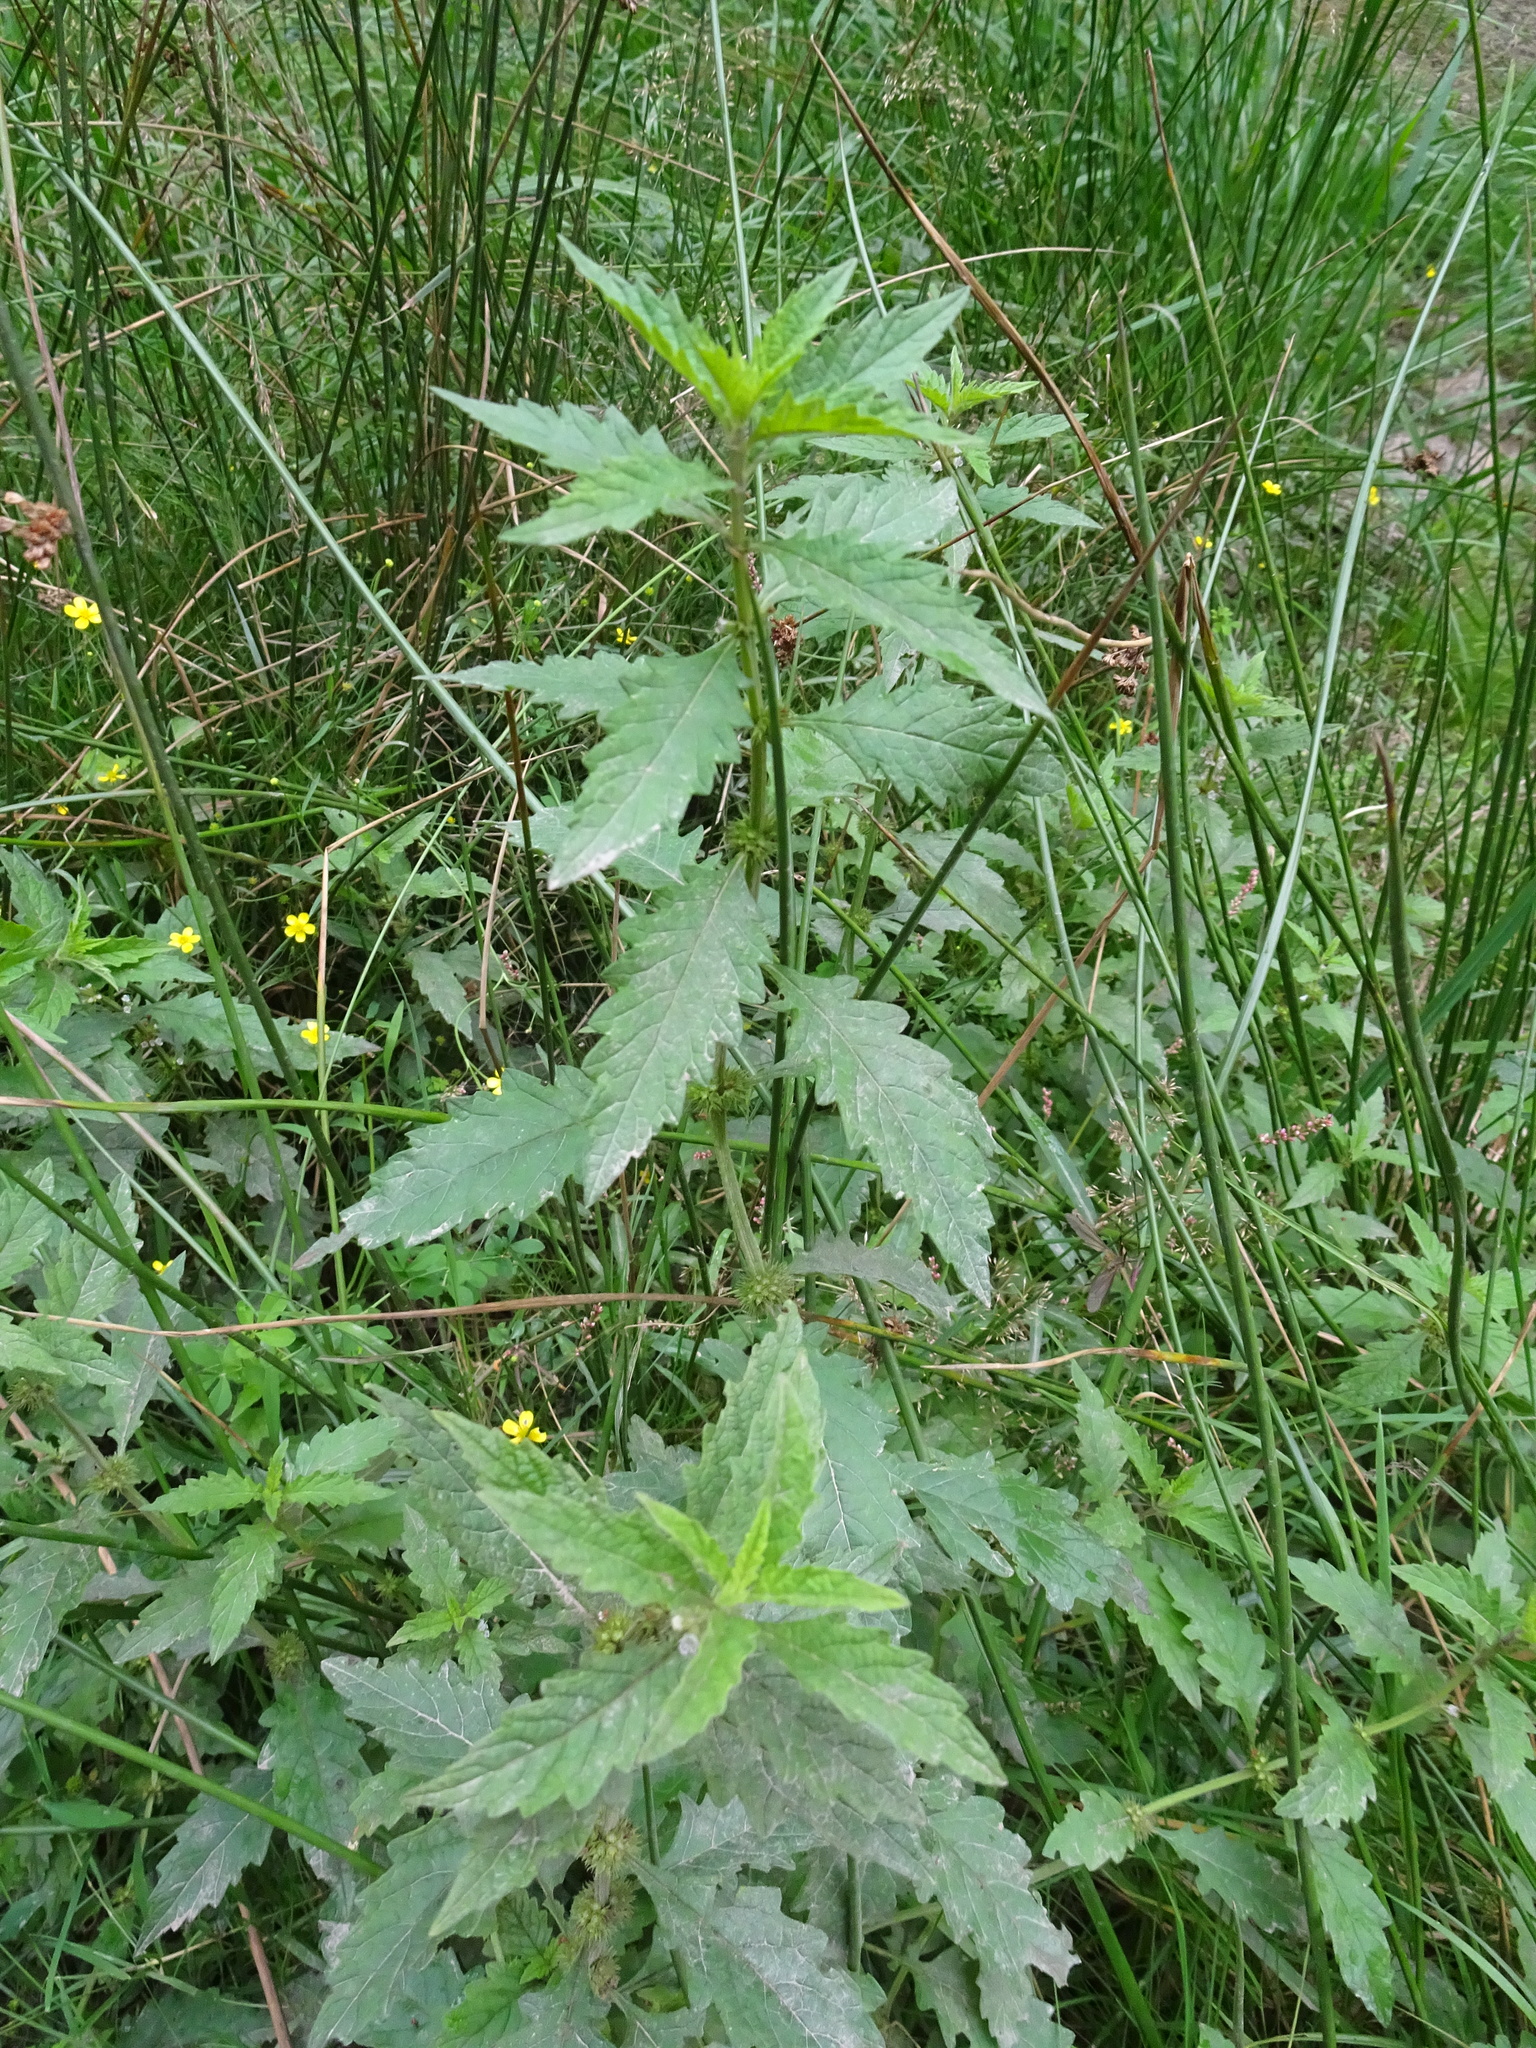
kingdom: Plantae
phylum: Tracheophyta
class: Magnoliopsida
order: Lamiales
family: Lamiaceae
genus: Lycopus
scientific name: Lycopus europaeus
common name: European bugleweed
